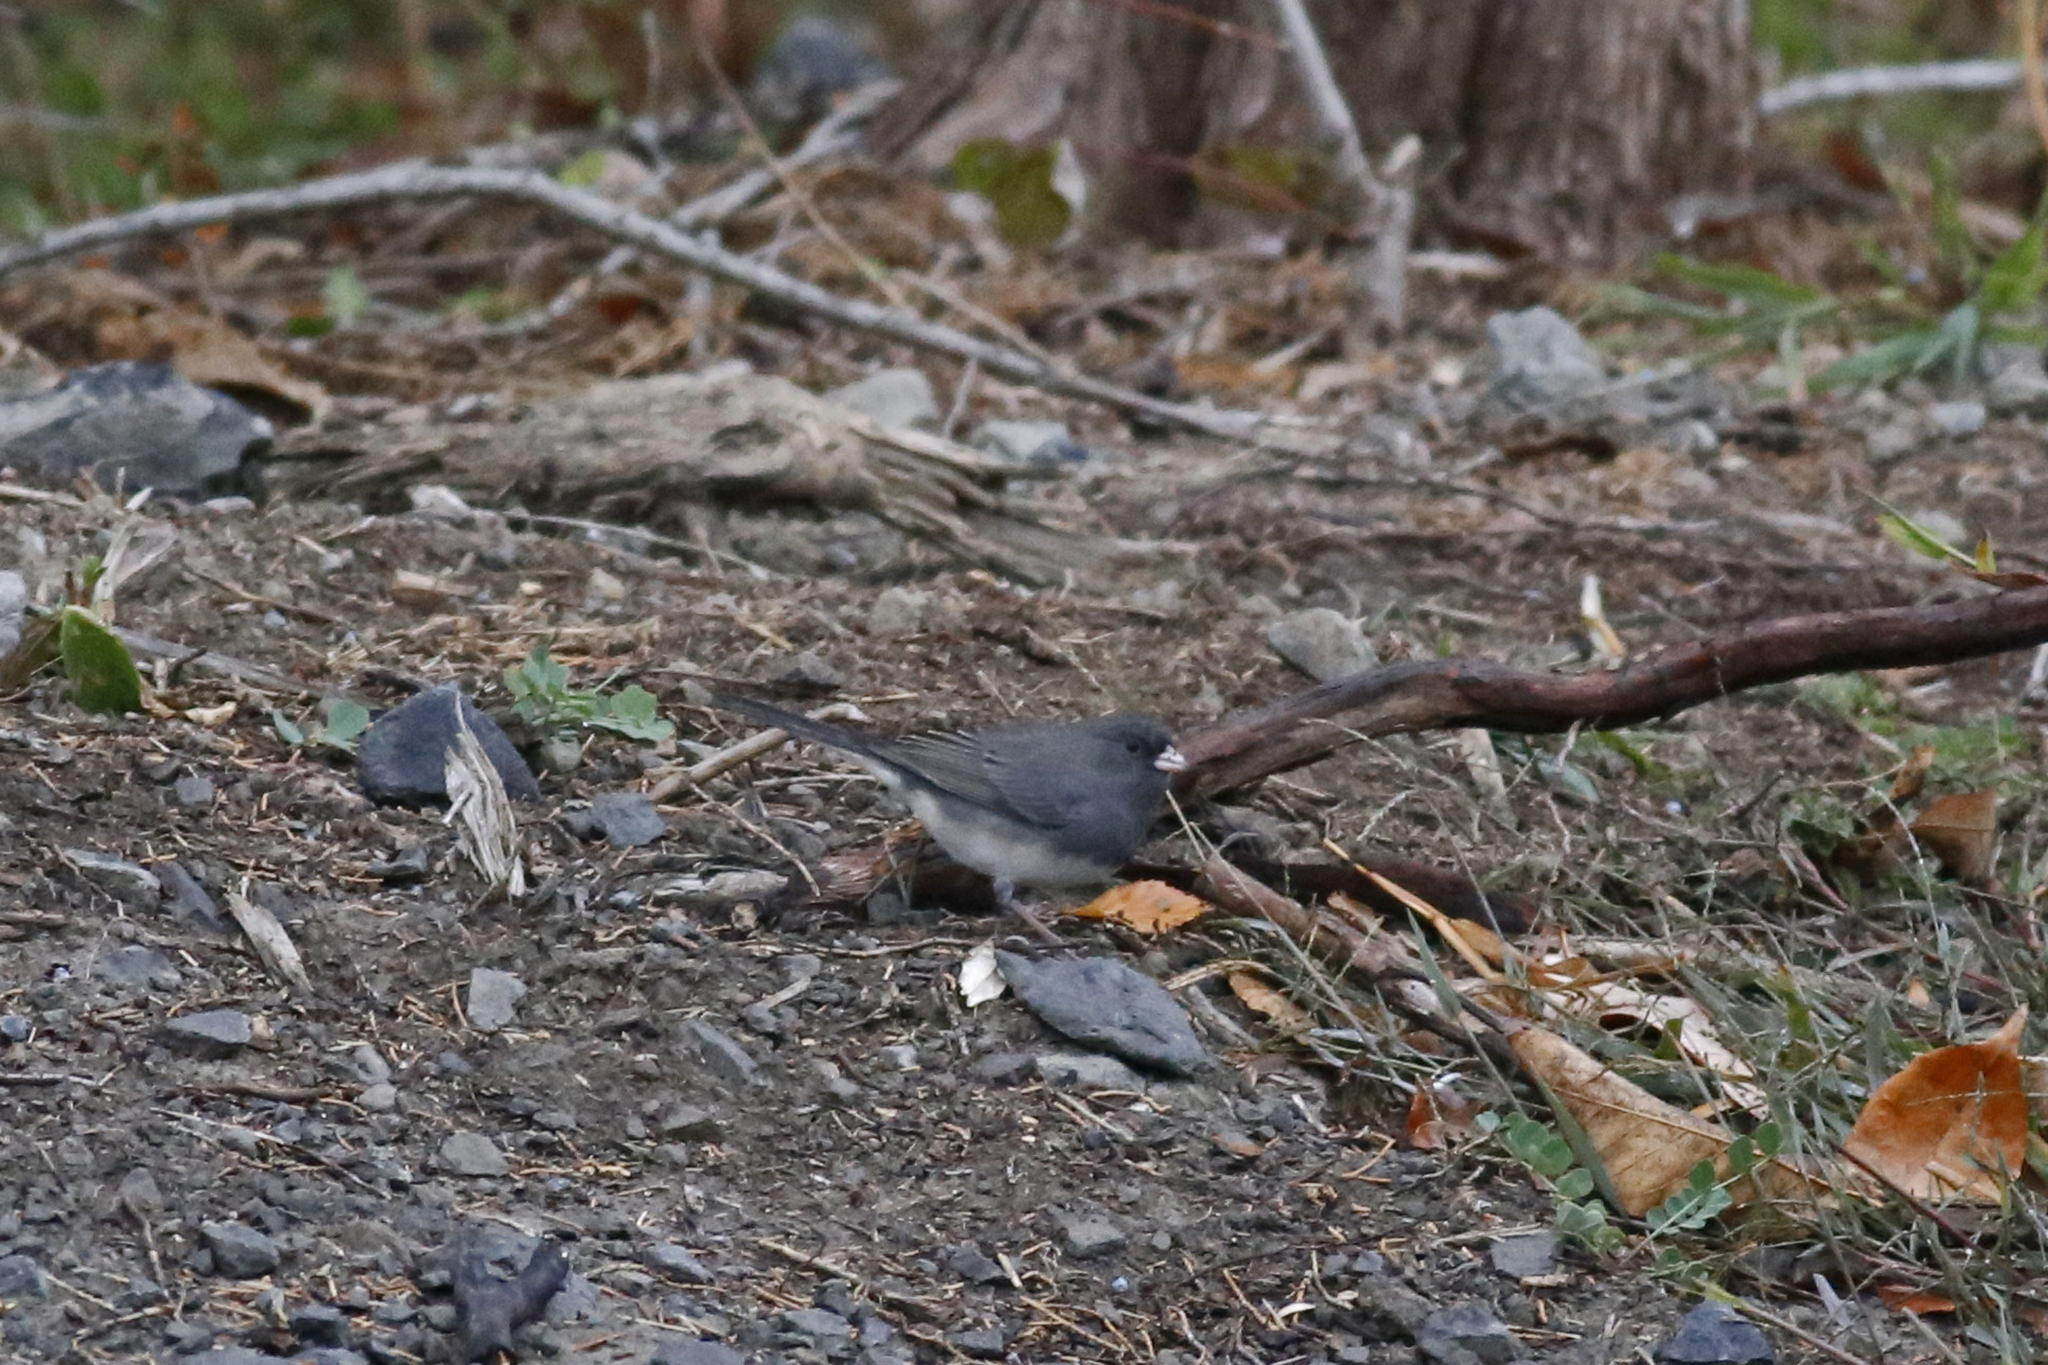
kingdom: Animalia
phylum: Chordata
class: Aves
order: Passeriformes
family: Passerellidae
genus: Junco
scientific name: Junco hyemalis
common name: Dark-eyed junco
